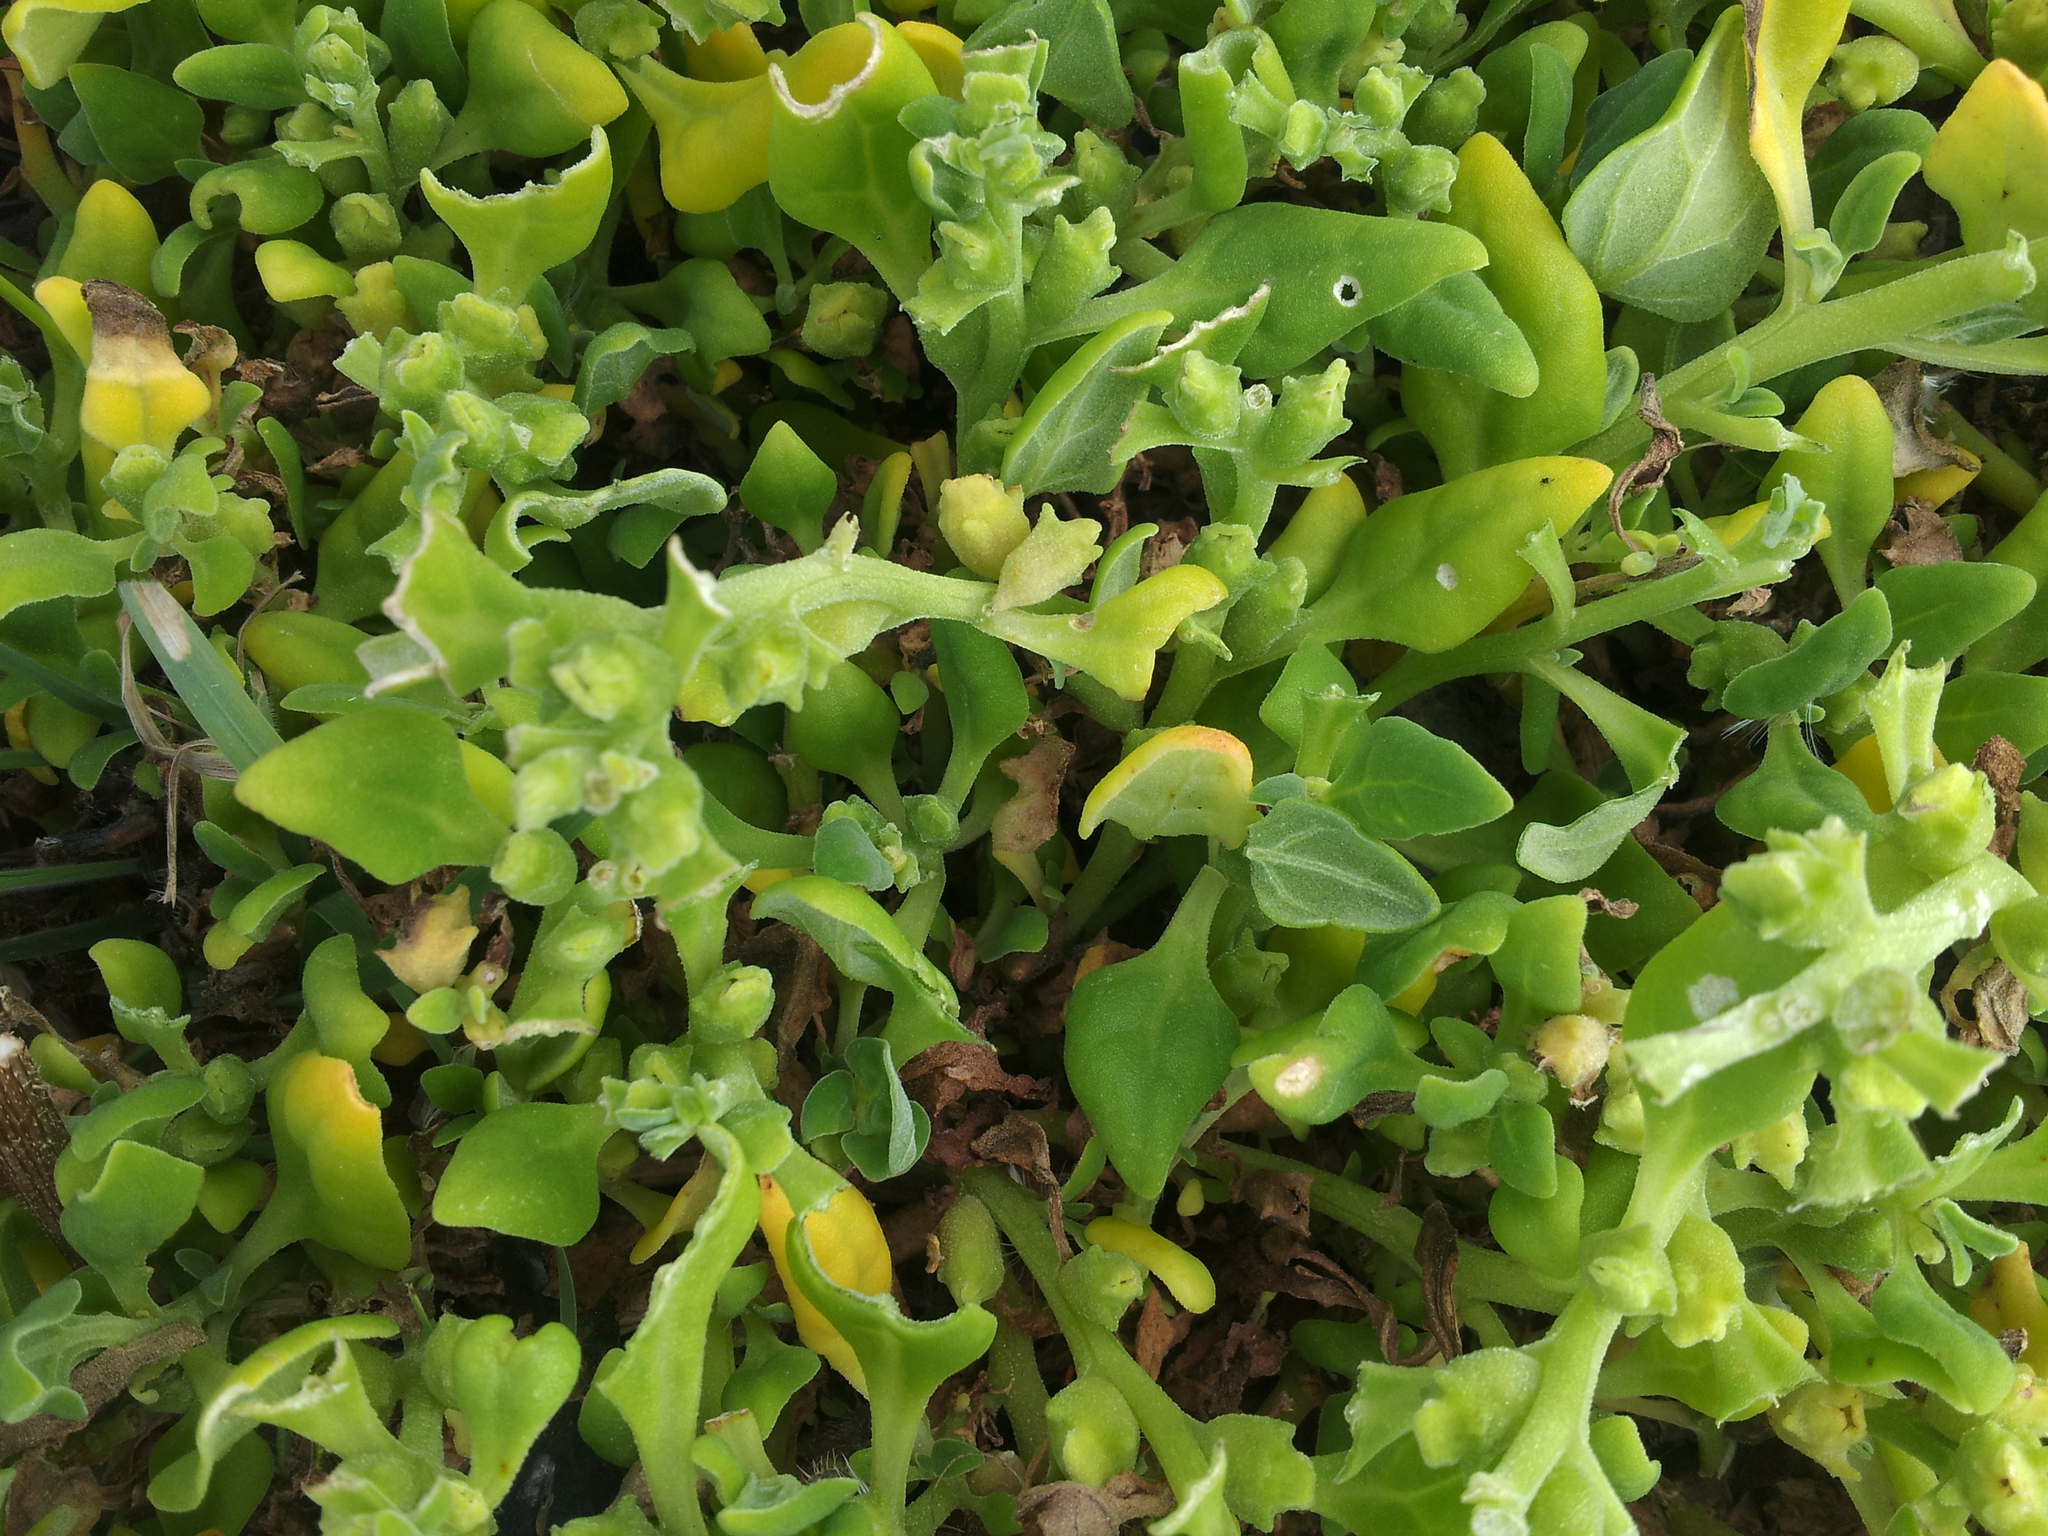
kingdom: Plantae
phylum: Tracheophyta
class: Magnoliopsida
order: Caryophyllales
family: Aizoaceae
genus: Tetragonia
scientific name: Tetragonia tetragonoides
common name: New zealand-spinach
